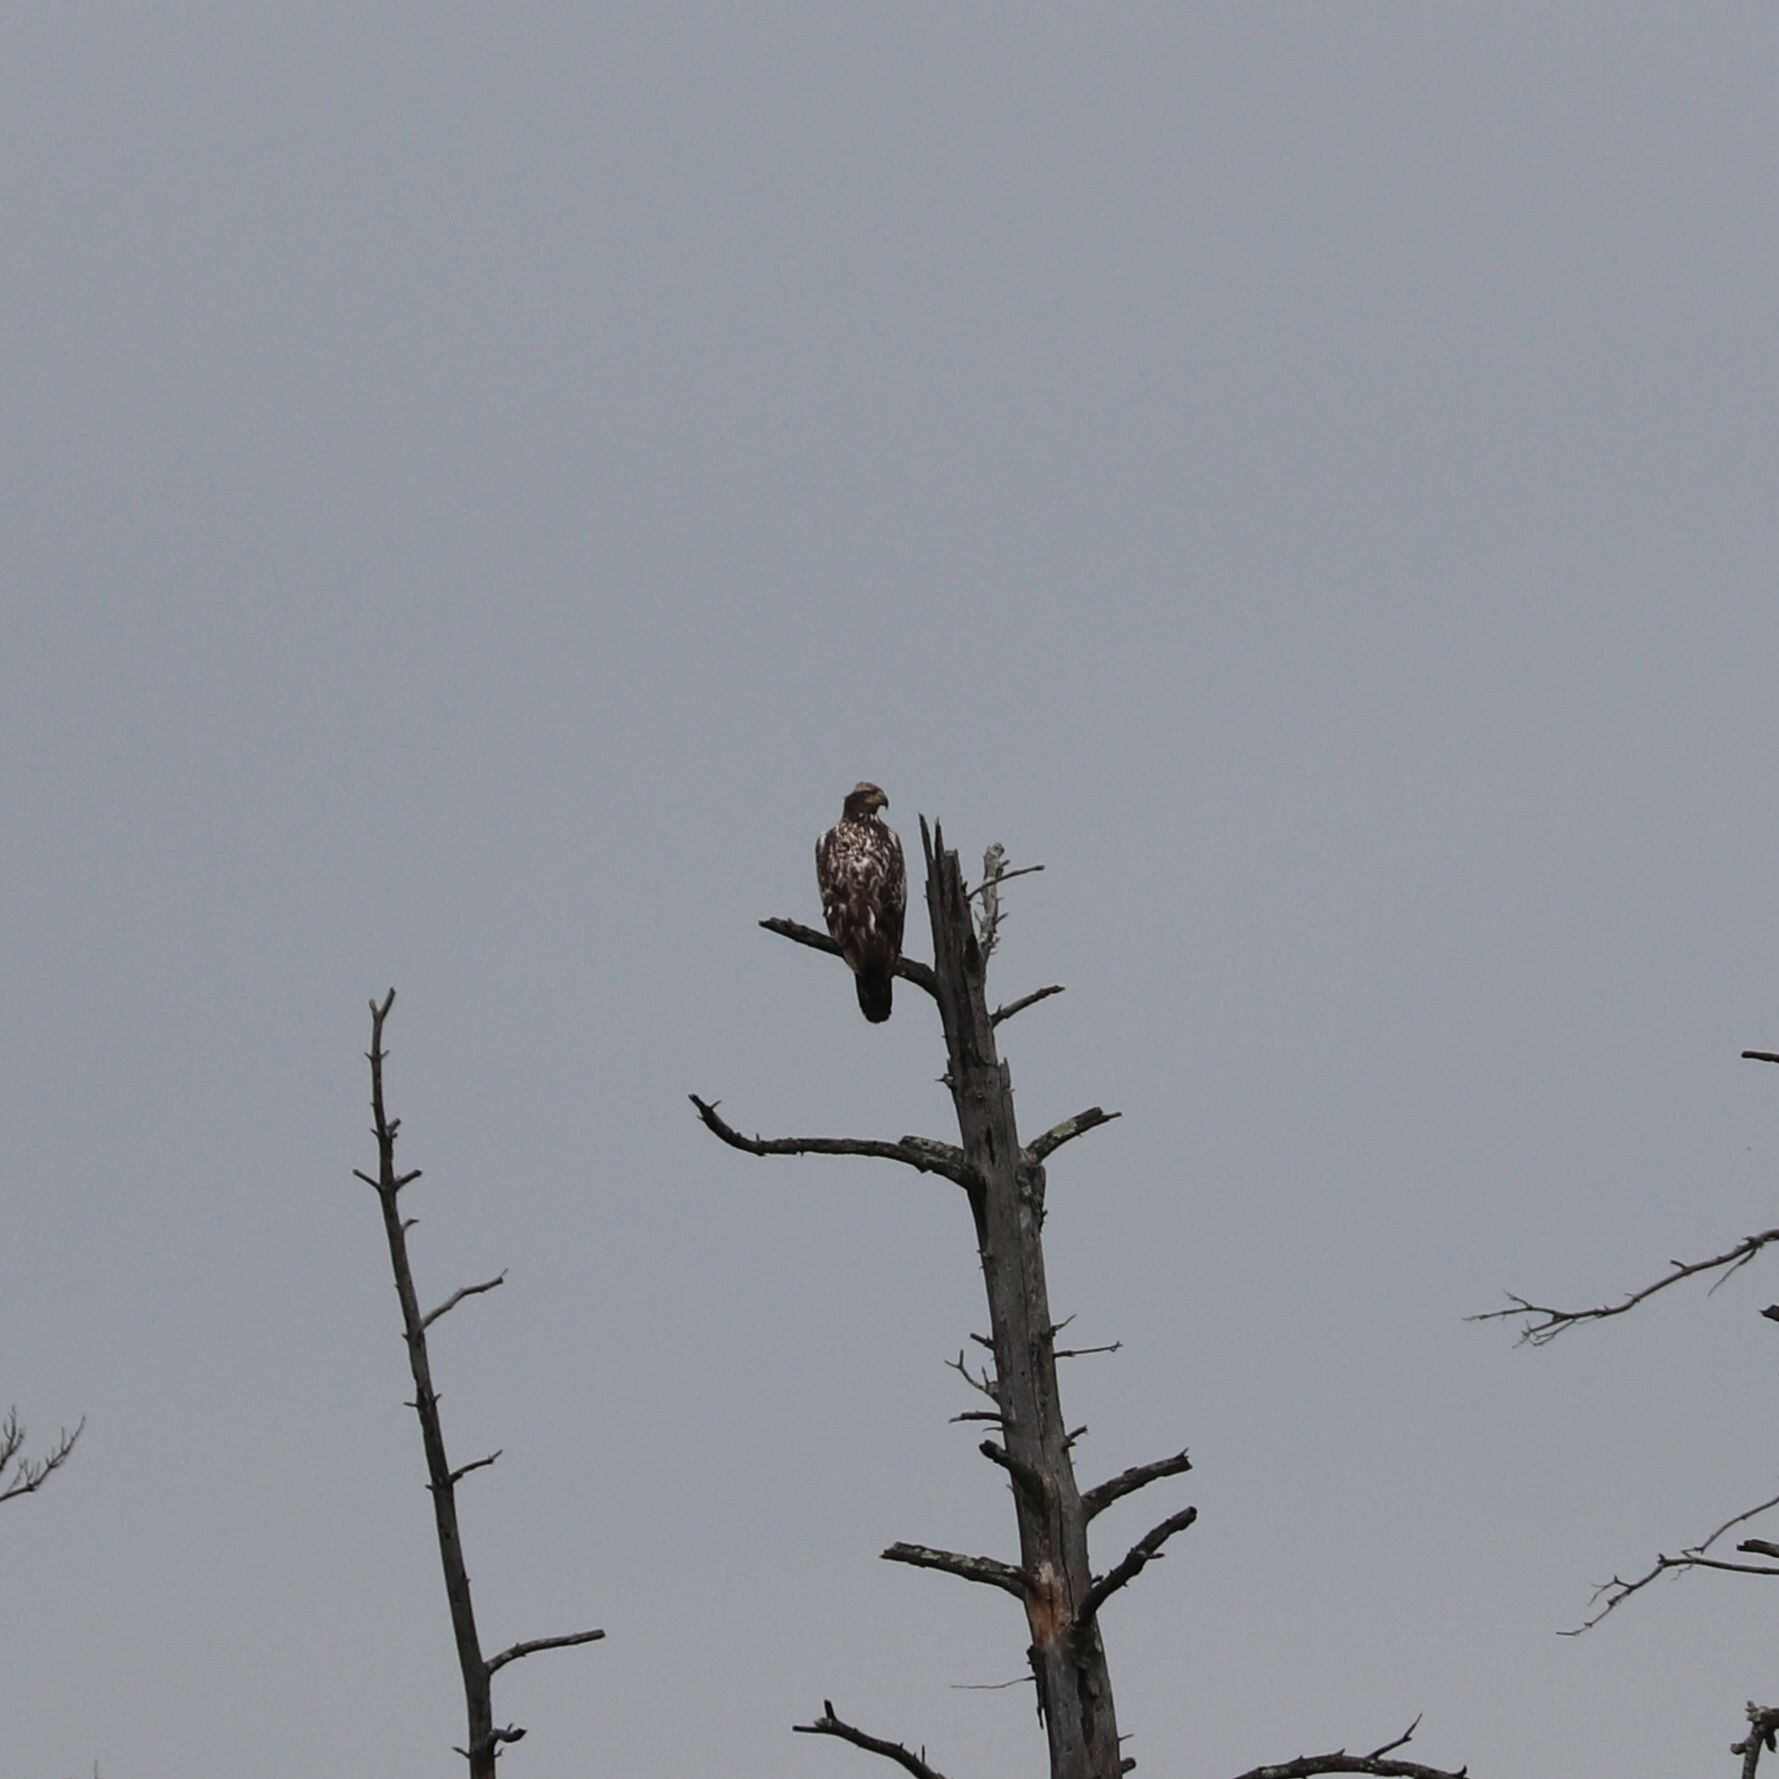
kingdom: Animalia
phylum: Chordata
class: Aves
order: Accipitriformes
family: Accipitridae
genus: Haliaeetus
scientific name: Haliaeetus leucocephalus
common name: Bald eagle
